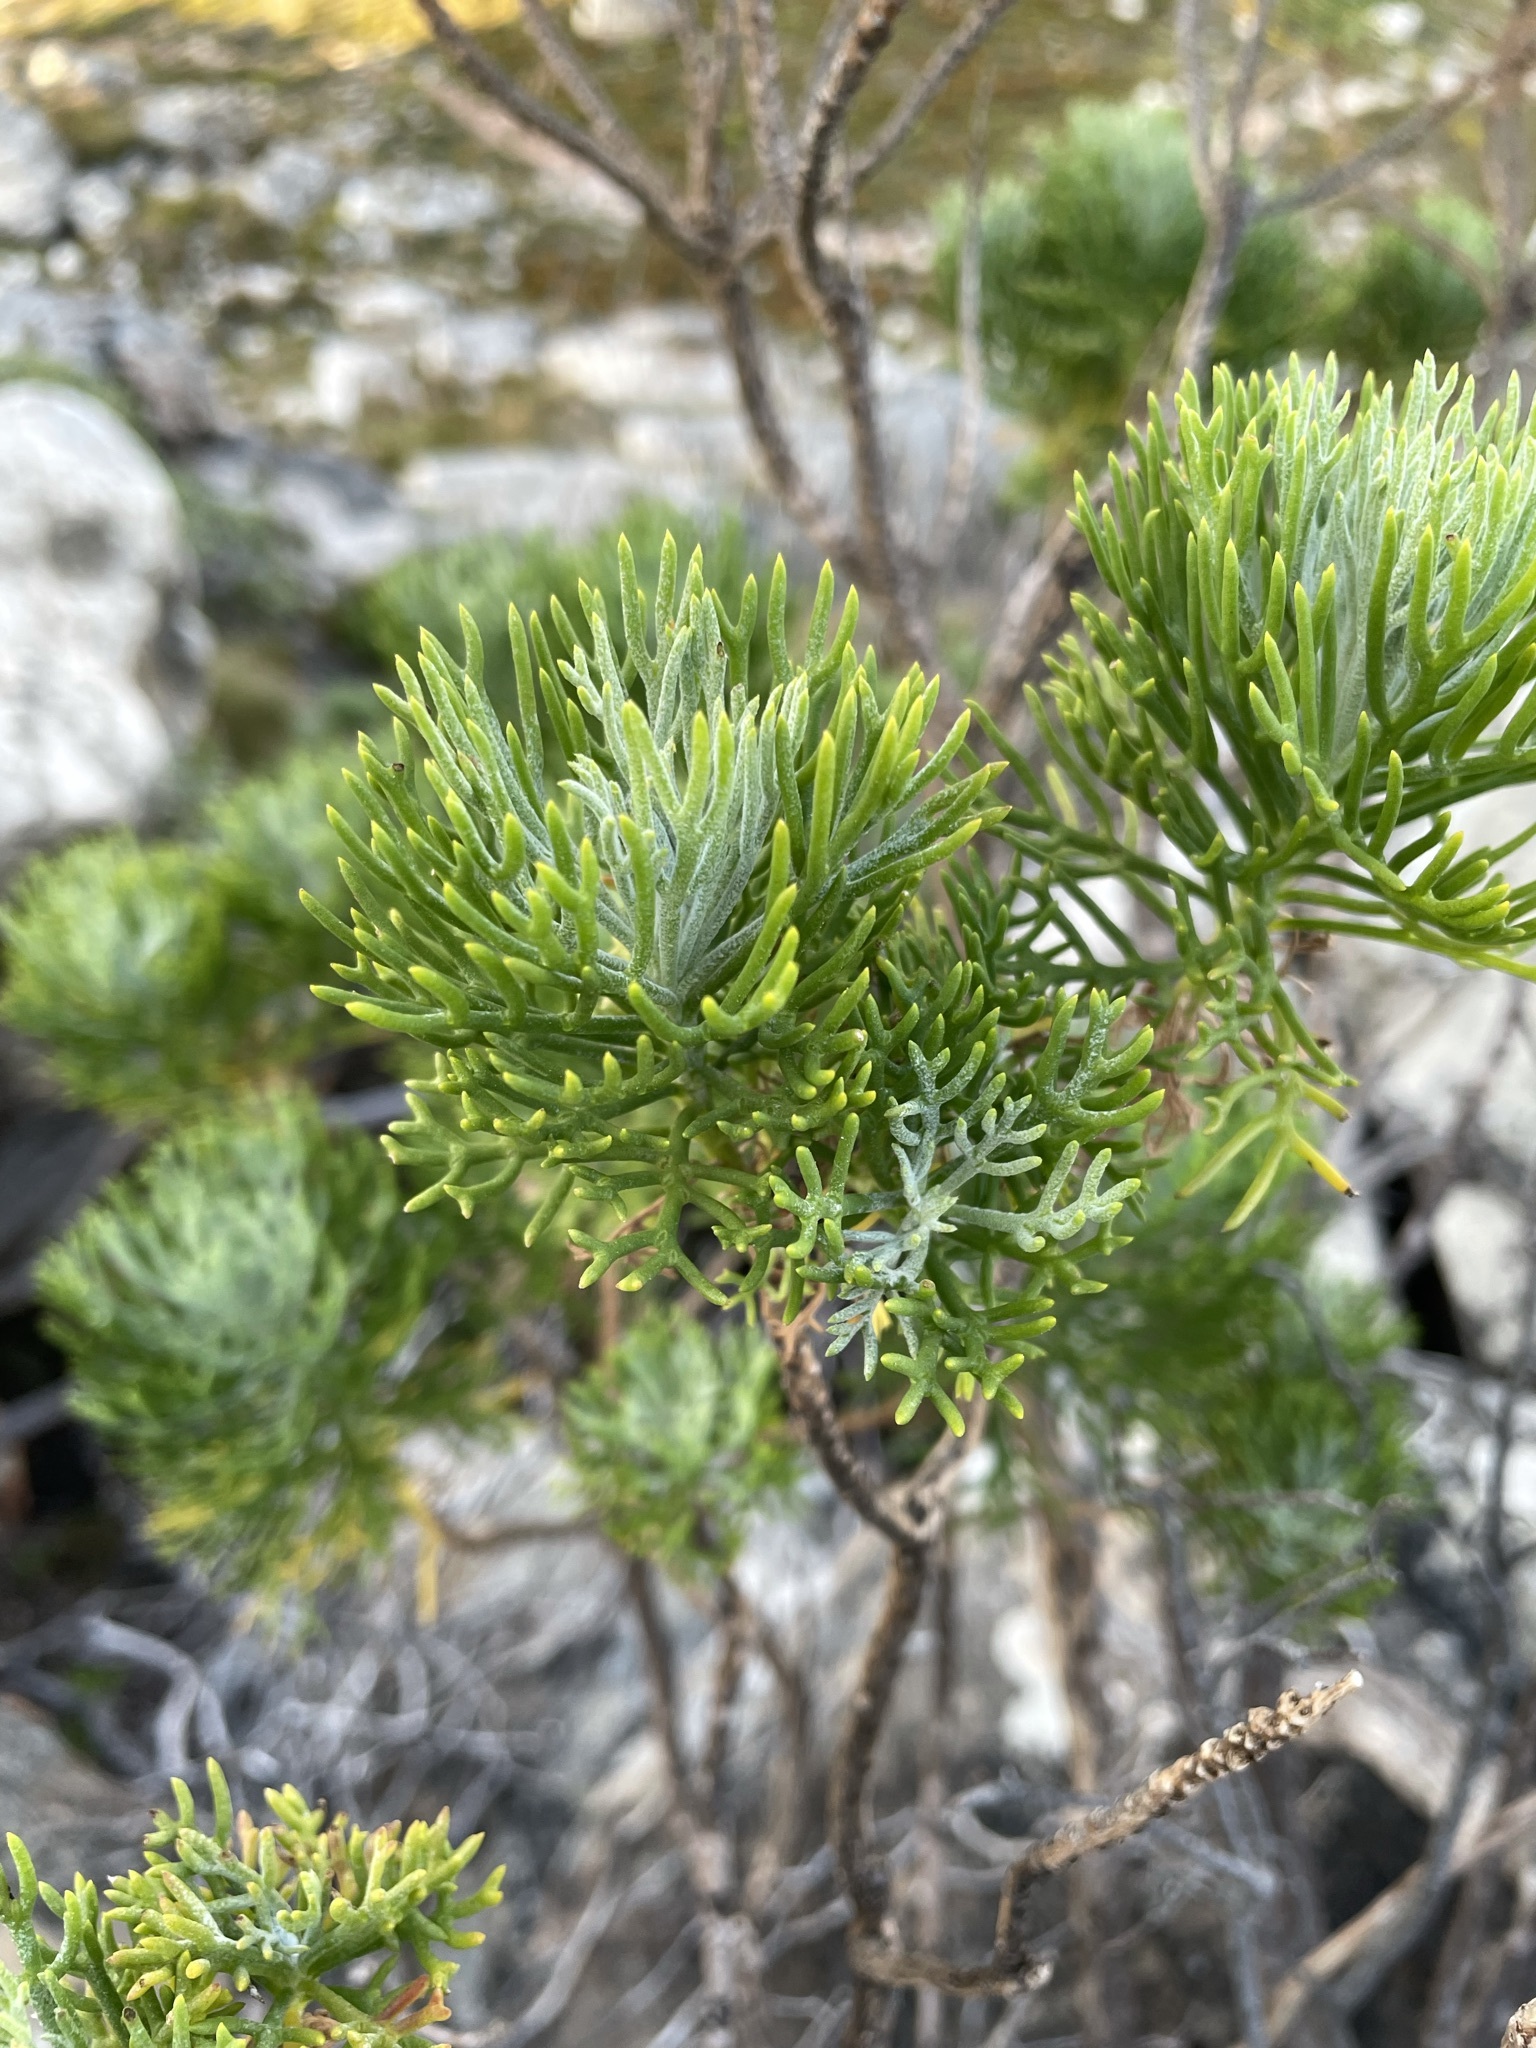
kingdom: Plantae
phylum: Tracheophyta
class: Magnoliopsida
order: Asterales
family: Asteraceae
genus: Hymenolepis
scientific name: Hymenolepis crithmifolia
